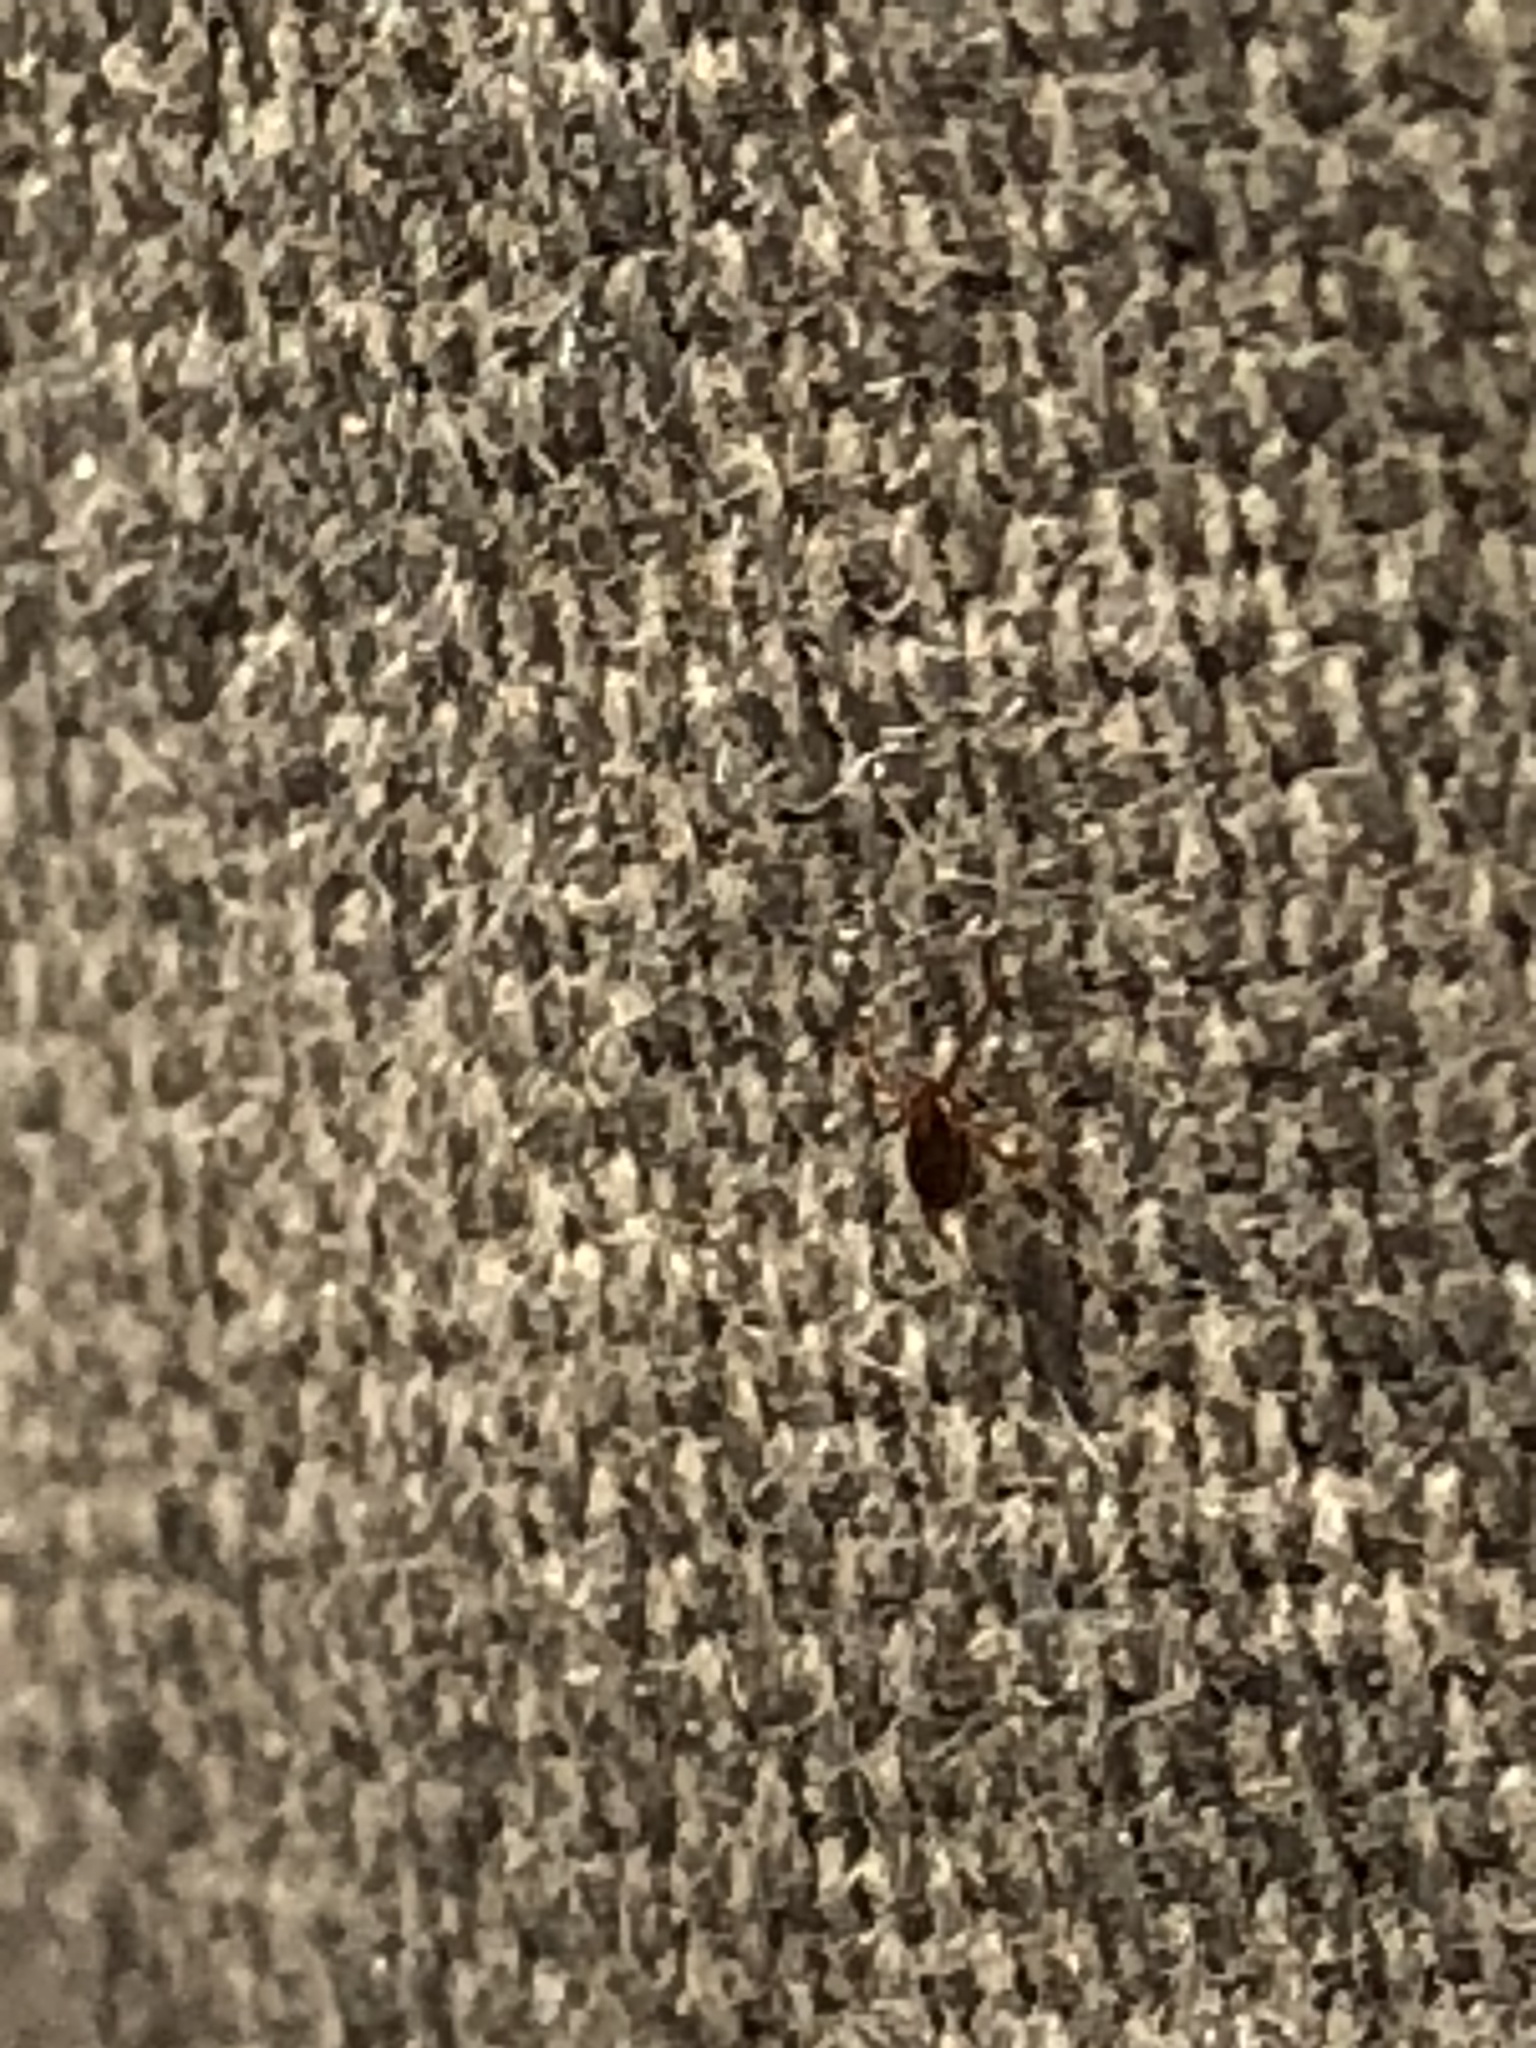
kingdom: Animalia
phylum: Arthropoda
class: Arachnida
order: Ixodida
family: Ixodidae
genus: Amblyomma
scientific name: Amblyomma americanum
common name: Lone star tick
